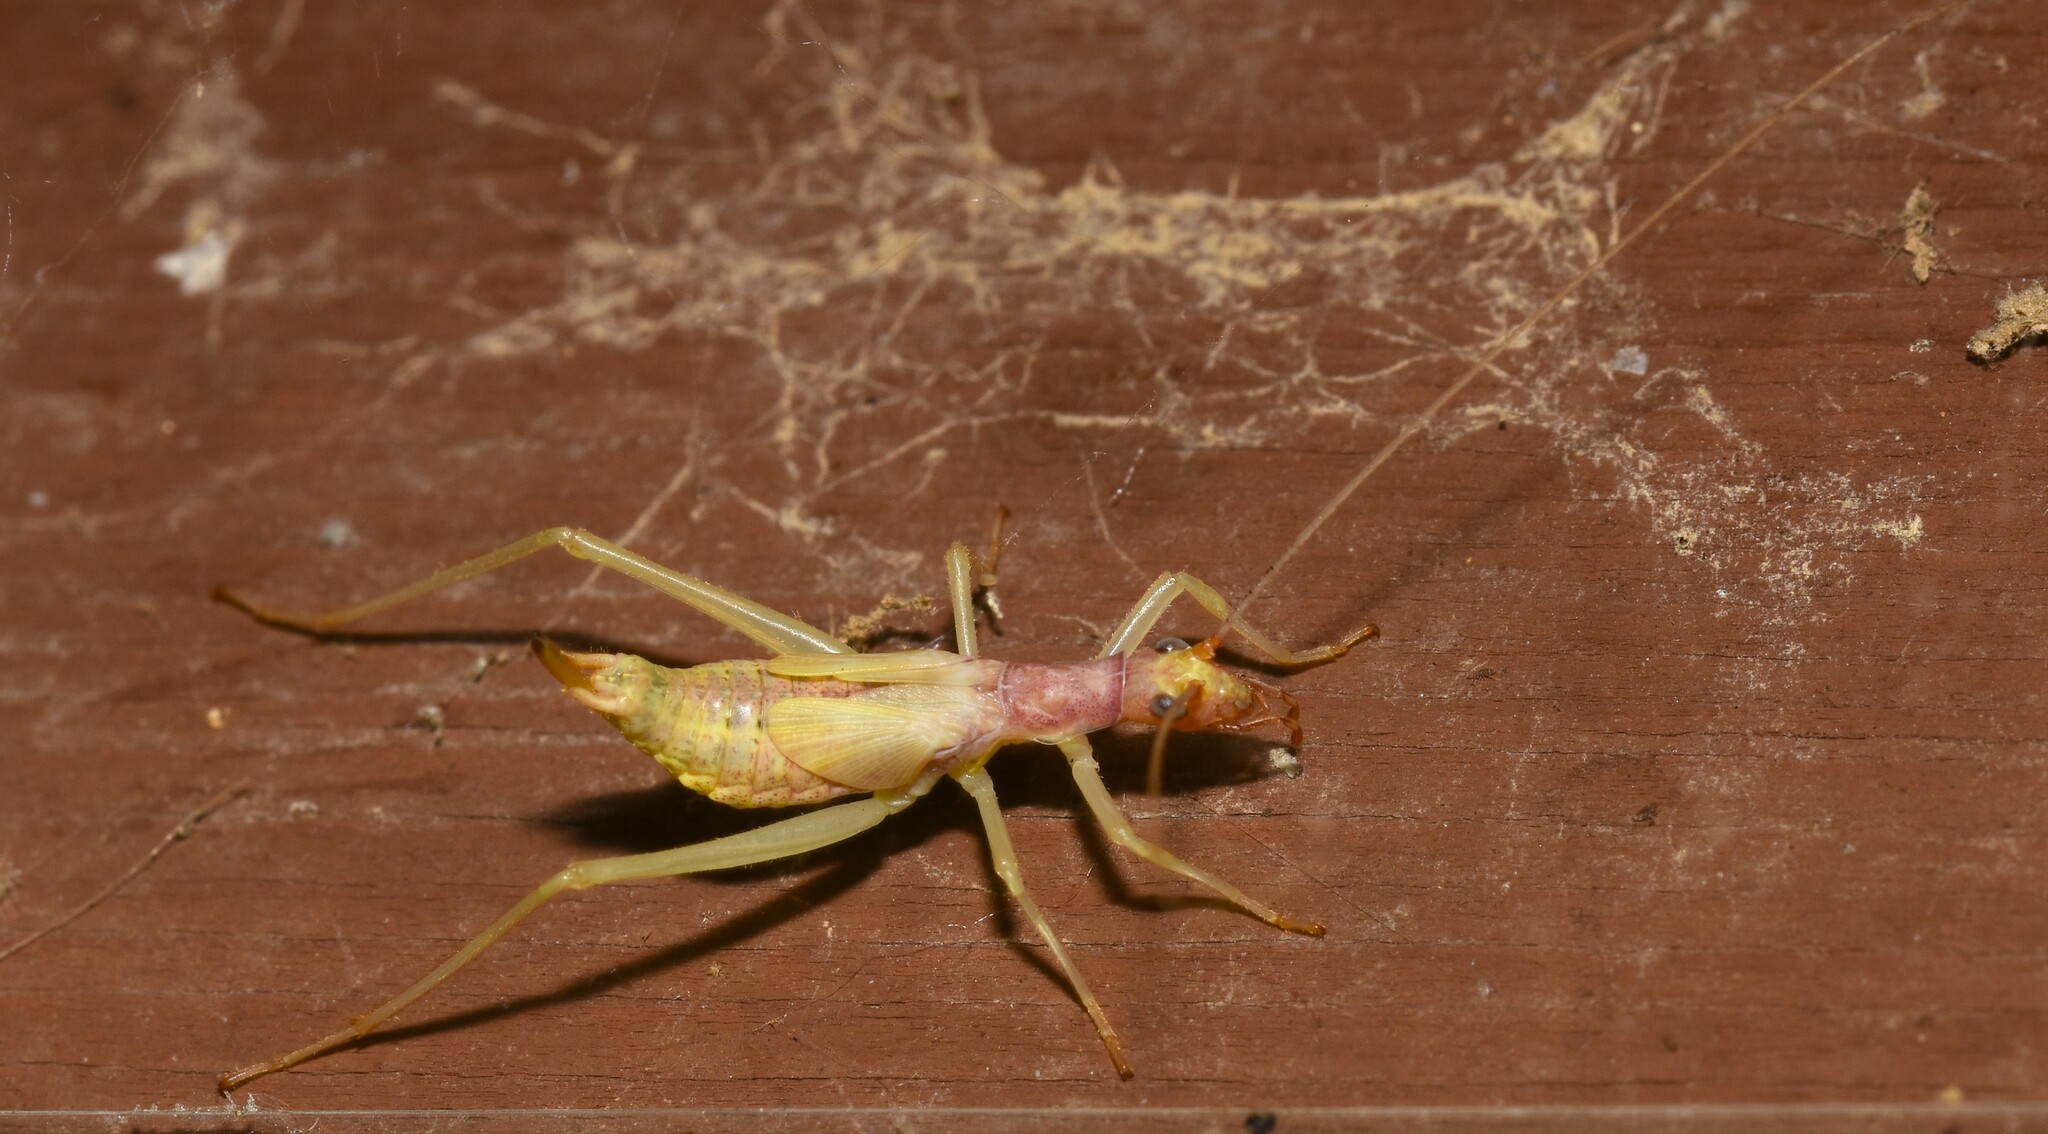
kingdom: Animalia
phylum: Arthropoda
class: Insecta
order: Orthoptera
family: Gryllidae
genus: Neoxabea
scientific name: Neoxabea bipunctata
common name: Two-spotted tree cricket
